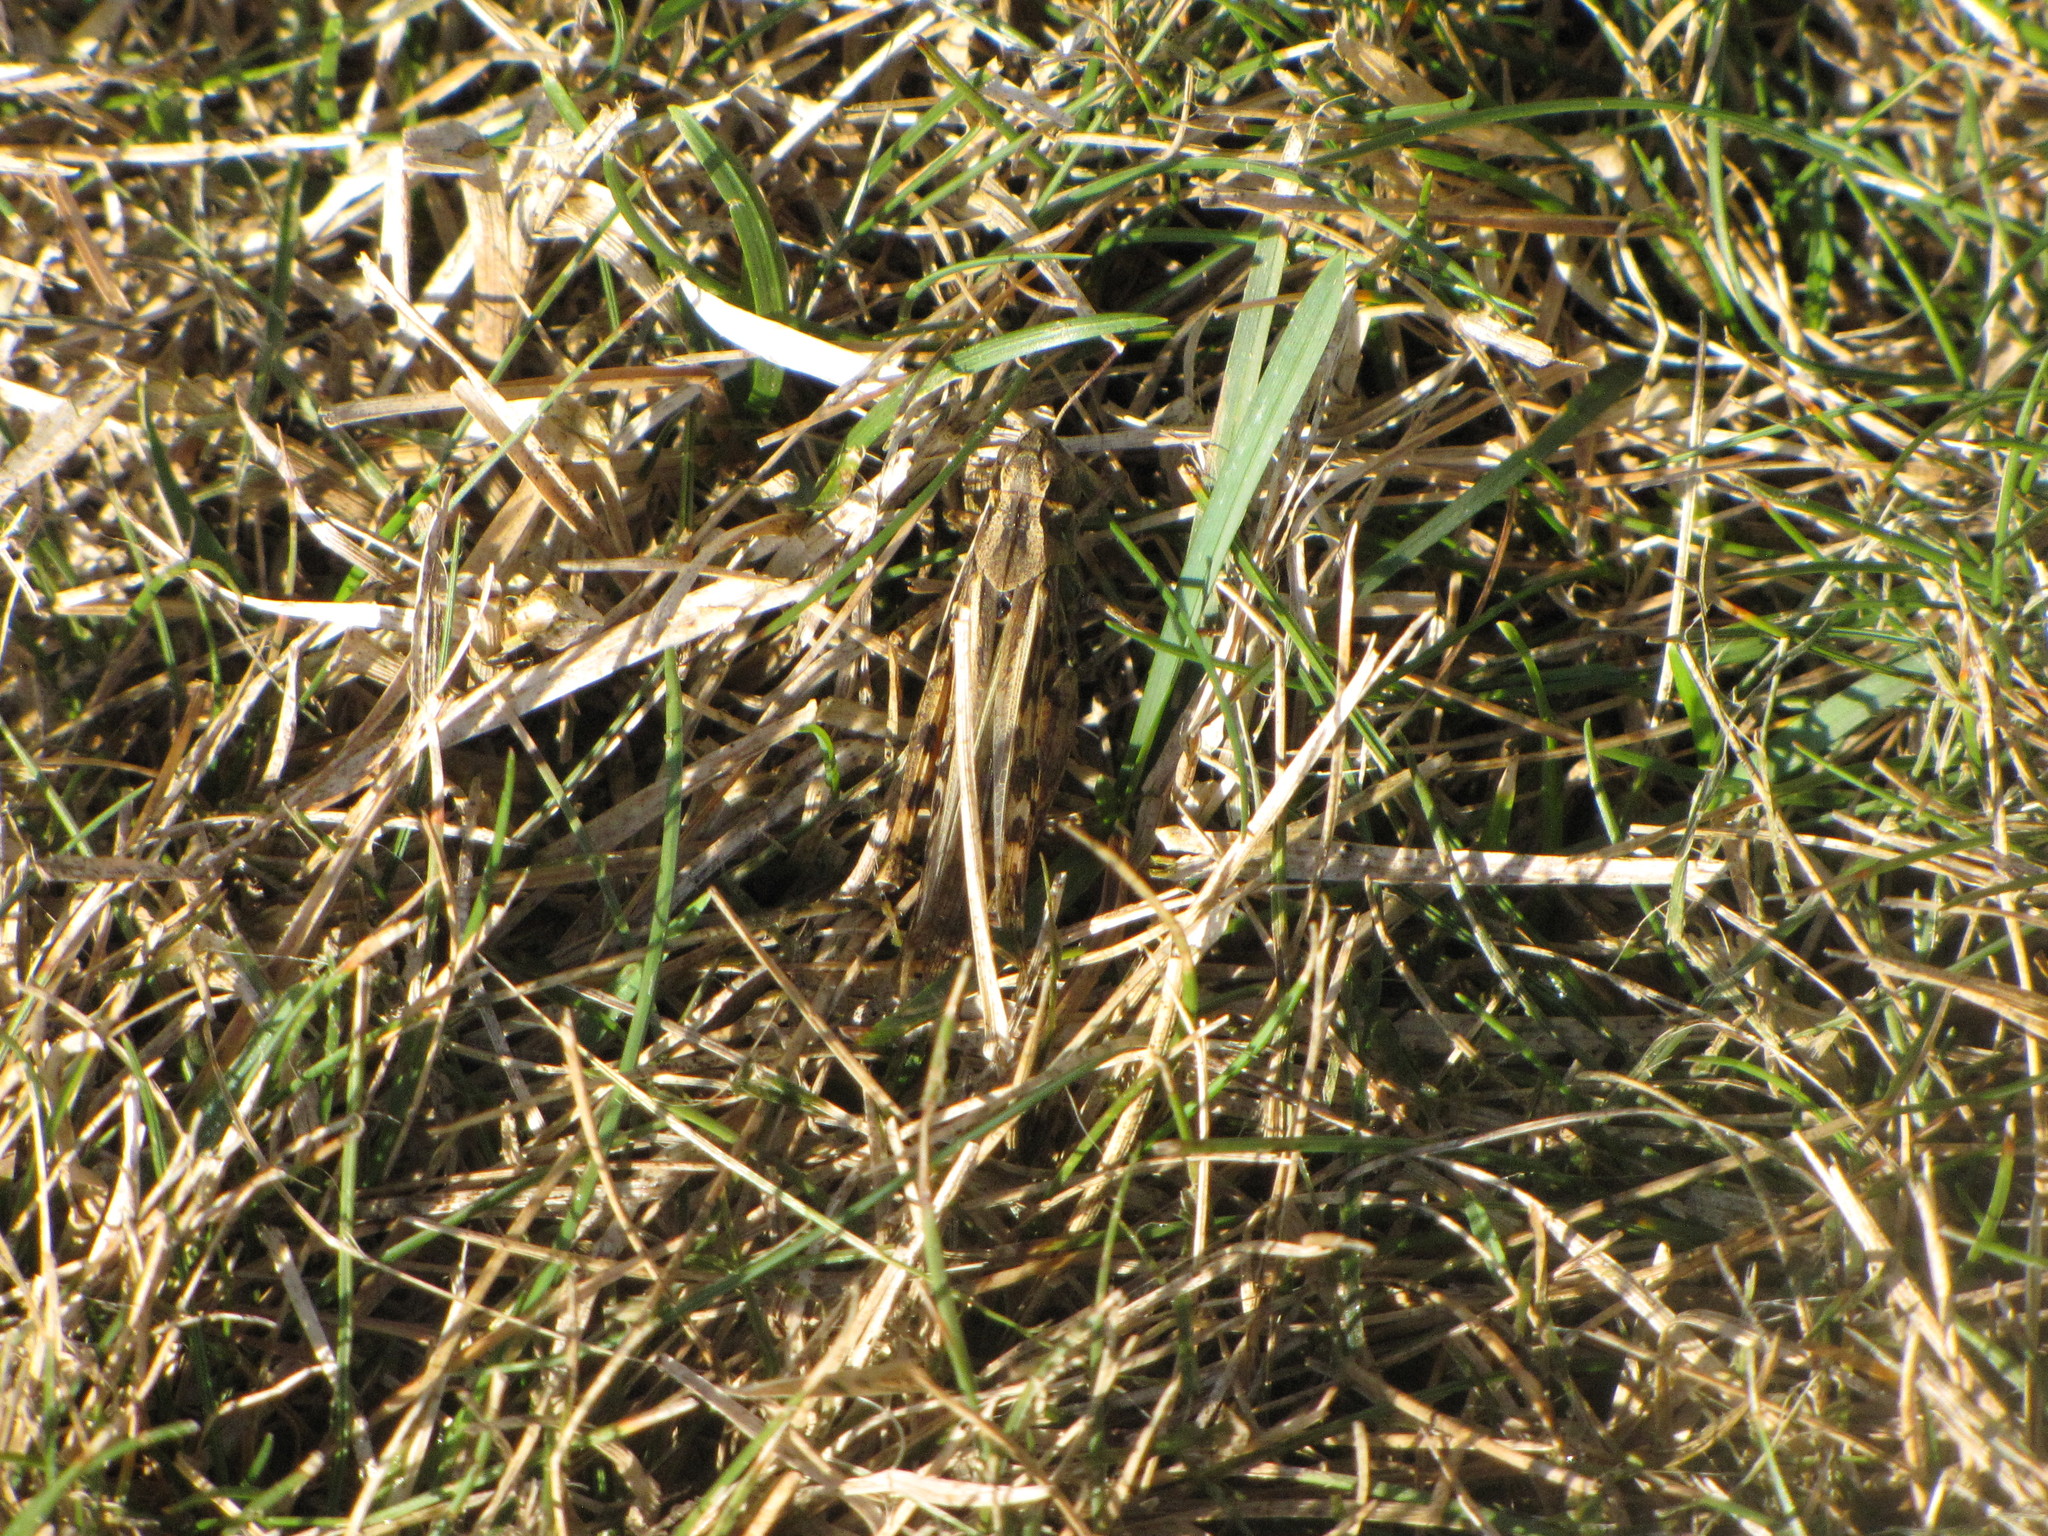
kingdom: Animalia
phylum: Arthropoda
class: Insecta
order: Orthoptera
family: Acrididae
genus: Camnula
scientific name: Camnula pellucida
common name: Clear-winged grasshopper
